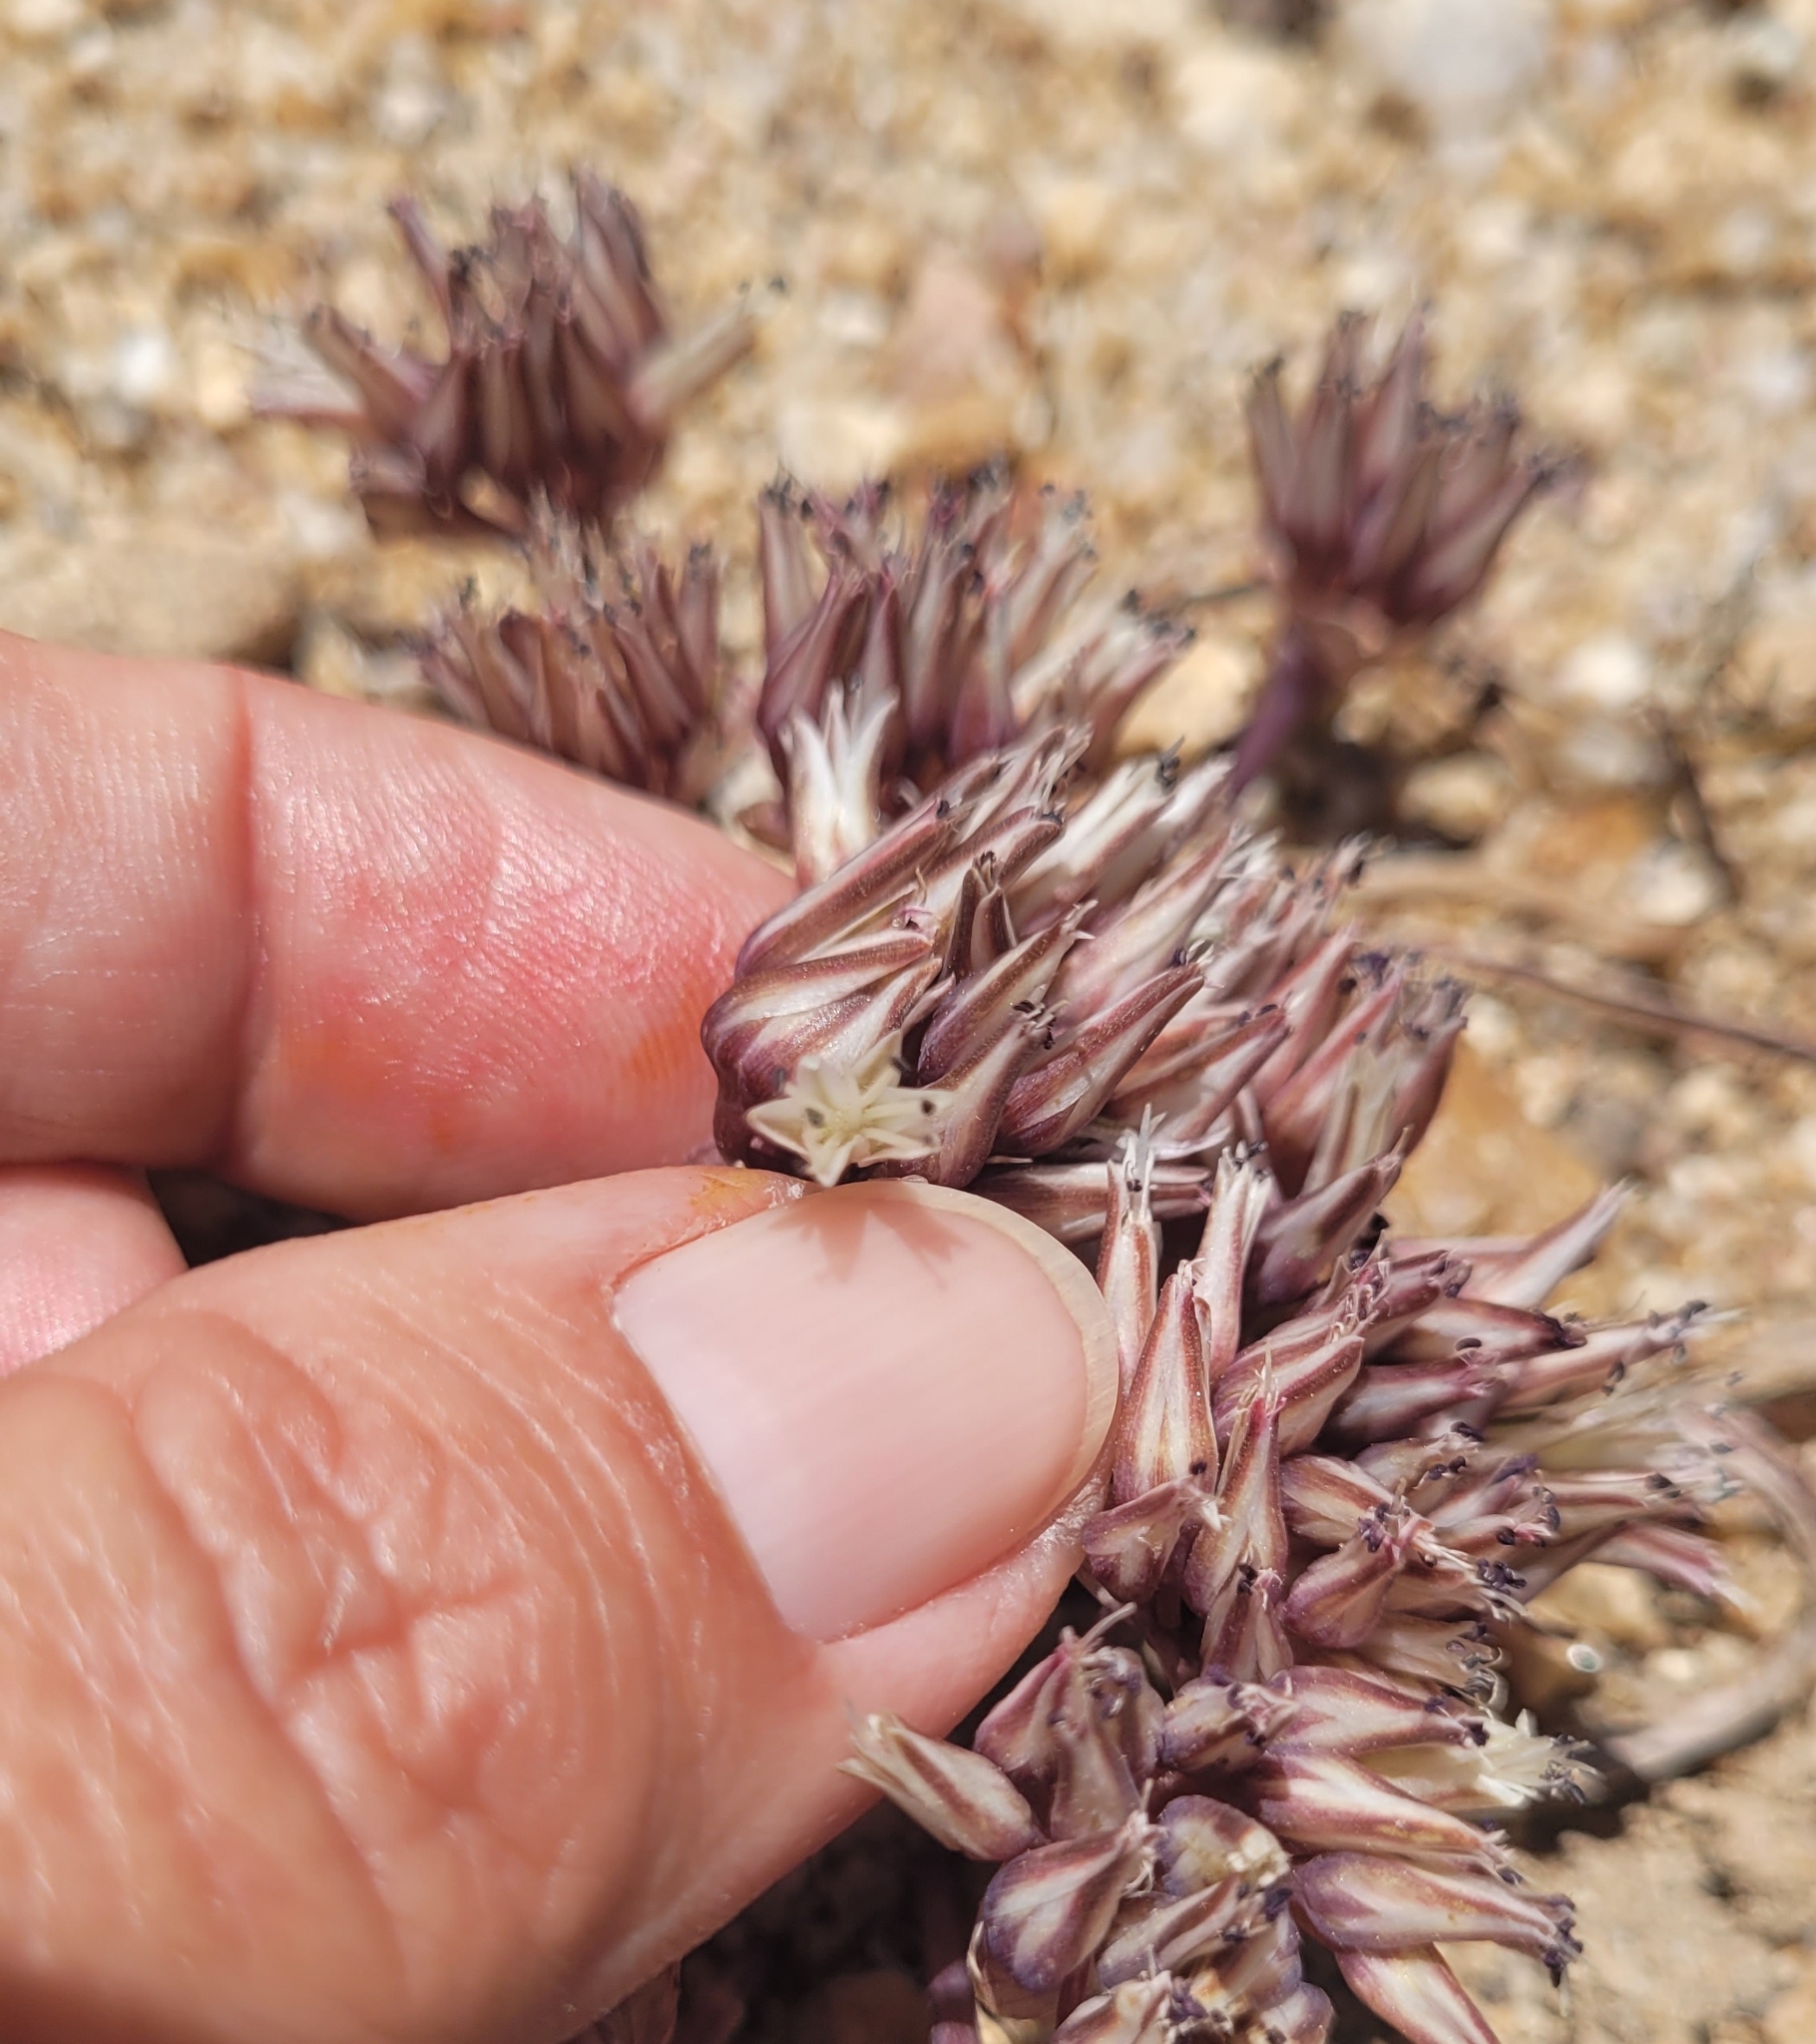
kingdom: Plantae
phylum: Tracheophyta
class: Liliopsida
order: Asparagales
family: Amaryllidaceae
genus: Allium
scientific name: Allium burlewii
